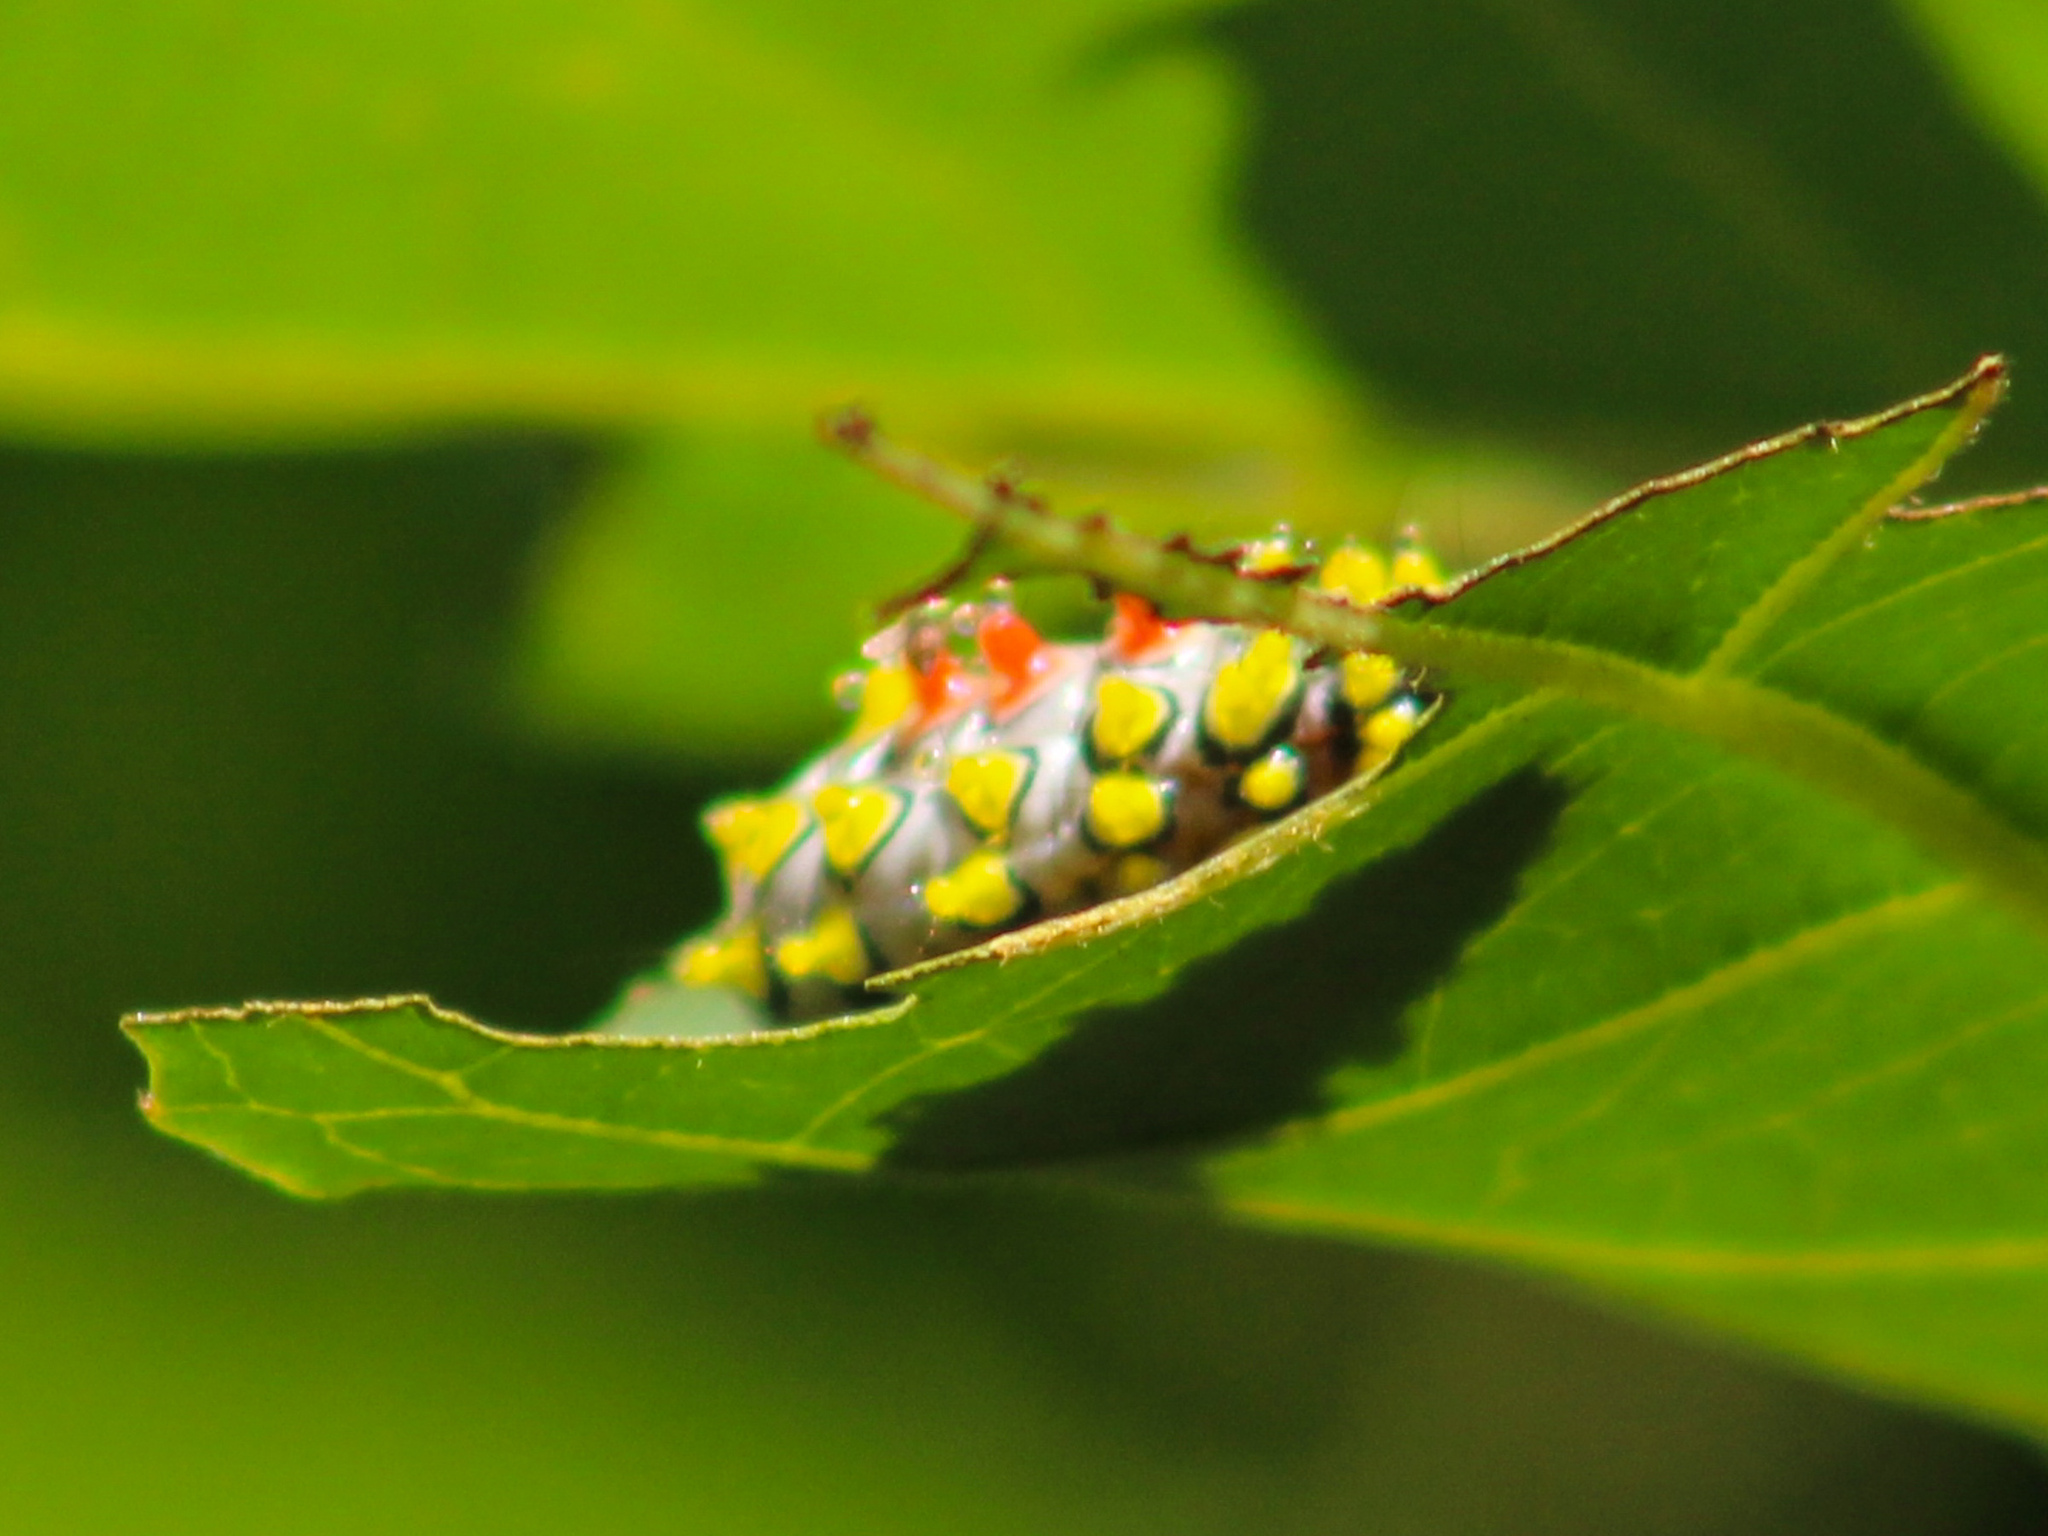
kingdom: Animalia
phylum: Arthropoda
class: Insecta
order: Lepidoptera
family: Zygaenidae
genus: Cyclosia
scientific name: Cyclosia papilionaris
